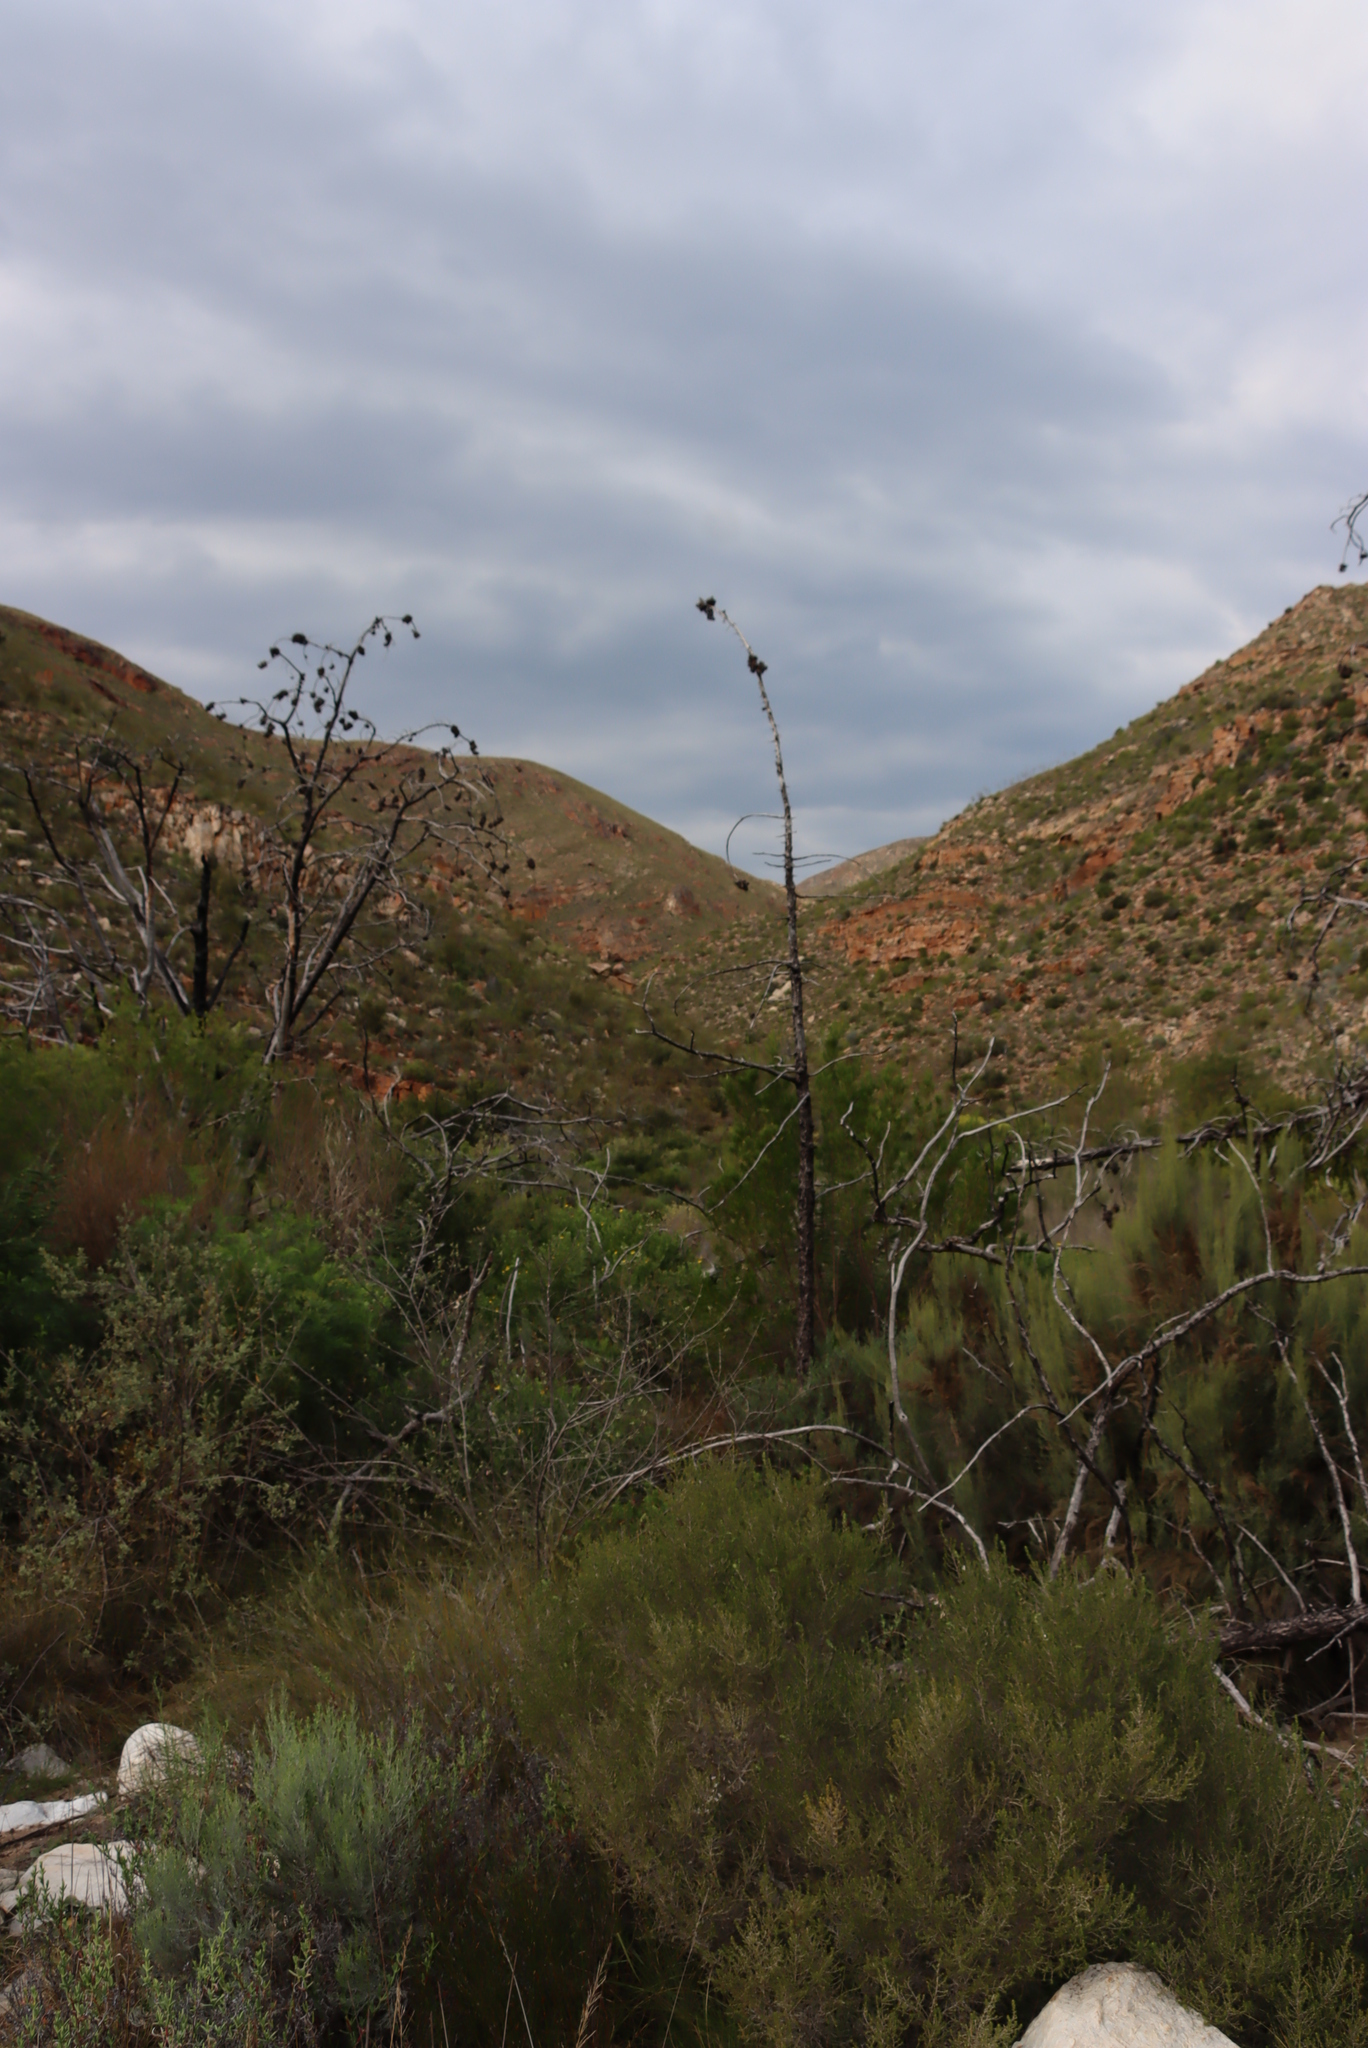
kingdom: Plantae
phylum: Tracheophyta
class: Pinopsida
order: Pinales
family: Cupressaceae
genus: Widdringtonia
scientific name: Widdringtonia schwarzii
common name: Baviaans cedar
